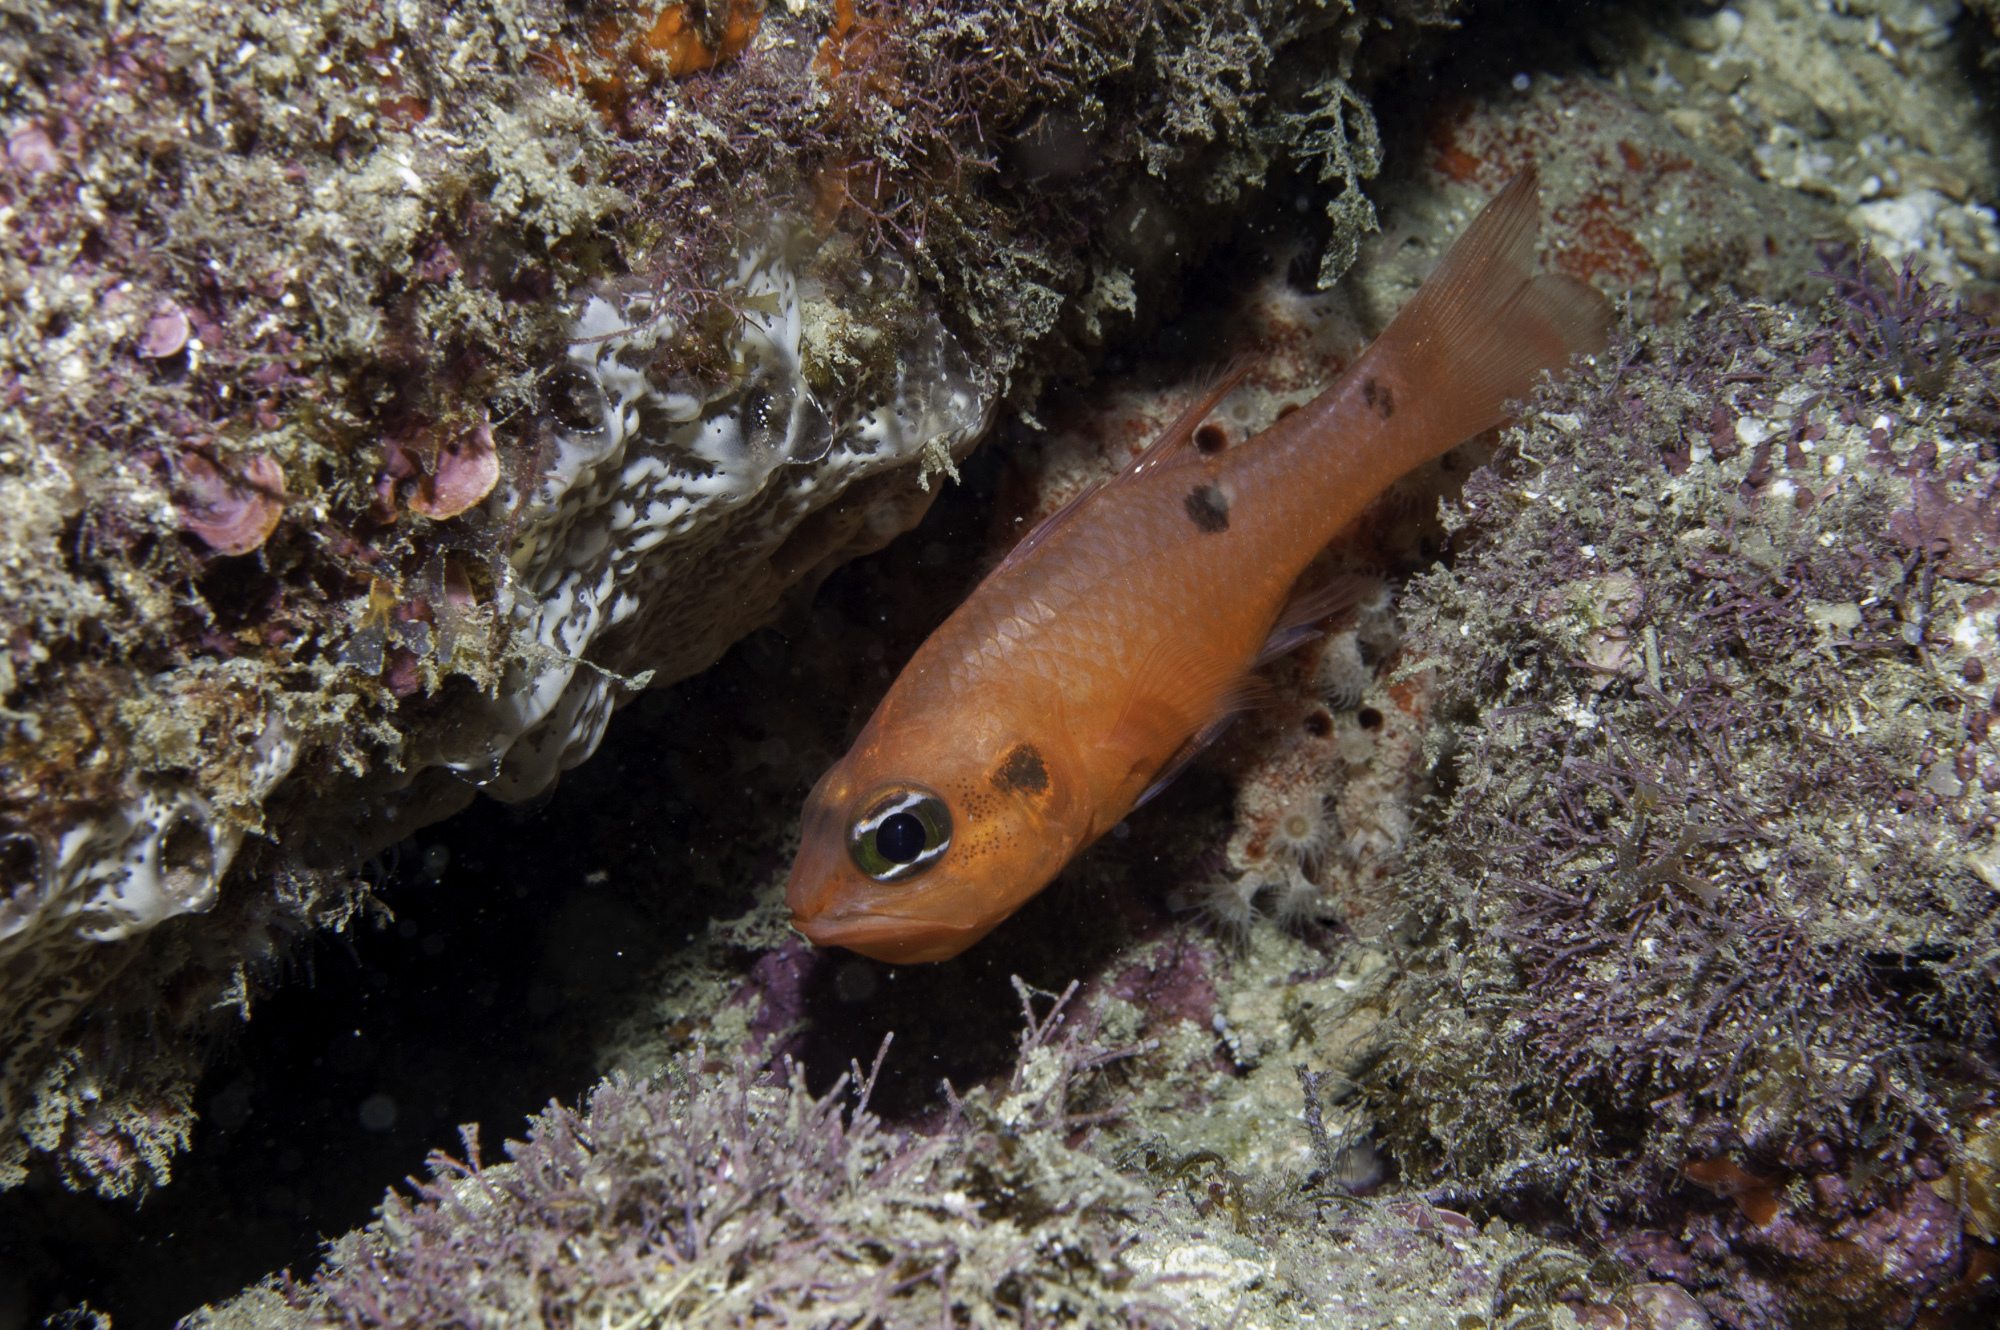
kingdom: Animalia
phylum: Chordata
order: Perciformes
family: Apogonidae
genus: Apogon
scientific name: Apogon maculatus
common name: Flamefish
